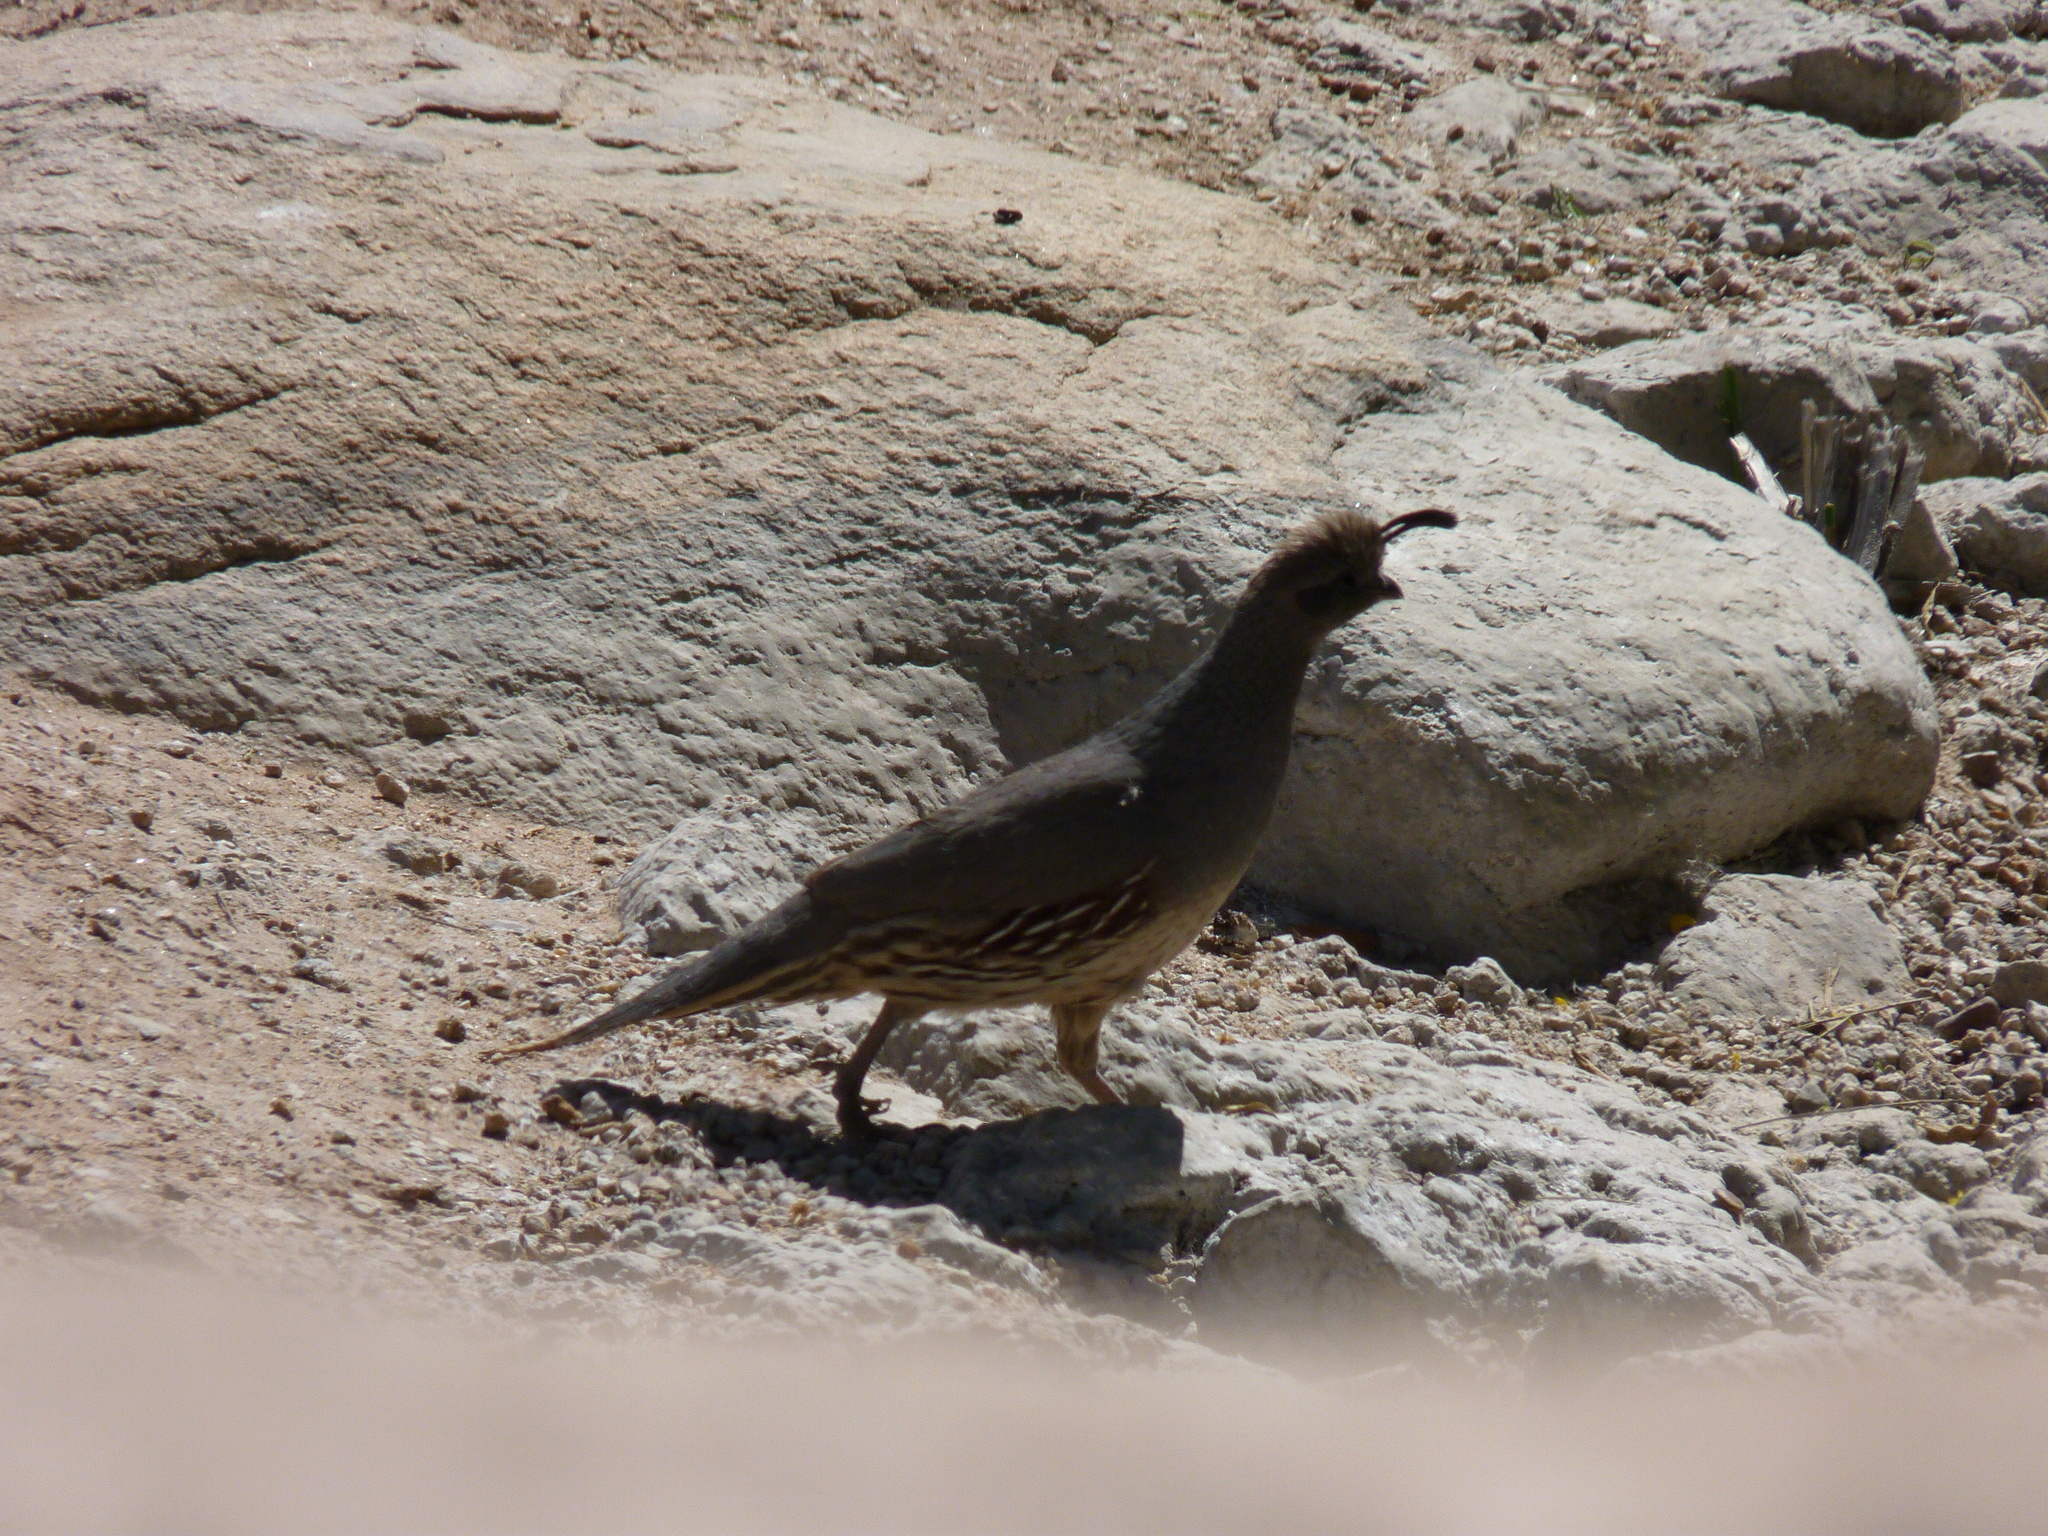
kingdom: Animalia
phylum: Chordata
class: Aves
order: Galliformes
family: Odontophoridae
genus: Callipepla
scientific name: Callipepla gambelii
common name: Gambel's quail
